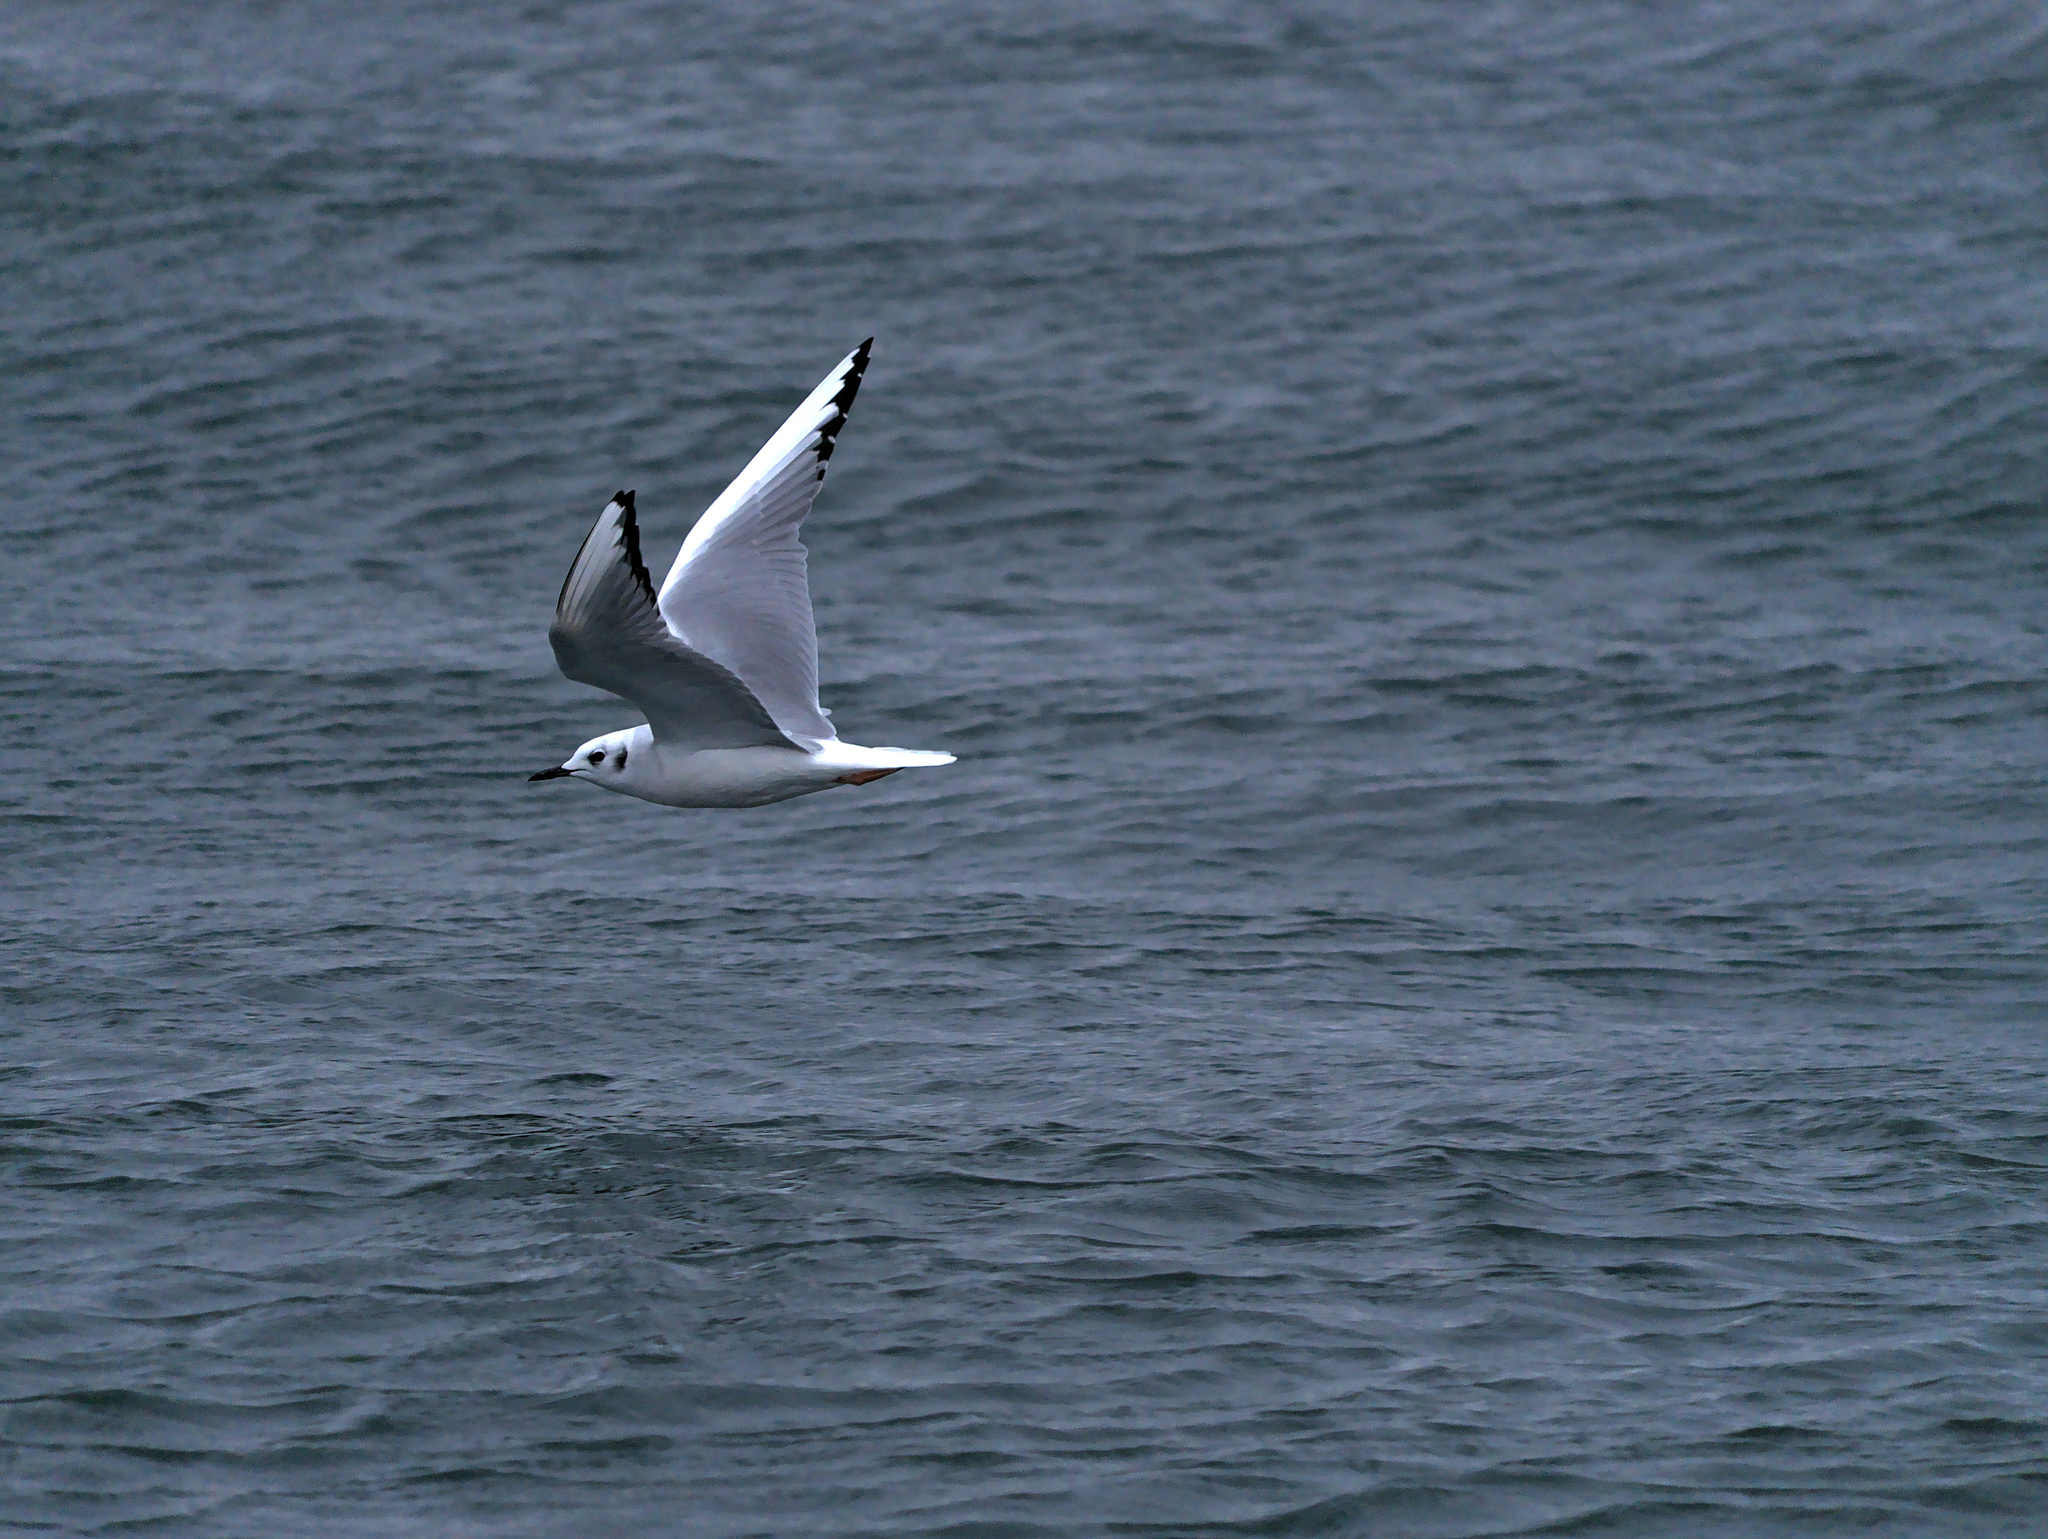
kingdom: Animalia
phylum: Chordata
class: Aves
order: Charadriiformes
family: Laridae
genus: Chroicocephalus
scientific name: Chroicocephalus philadelphia
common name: Bonaparte's gull
